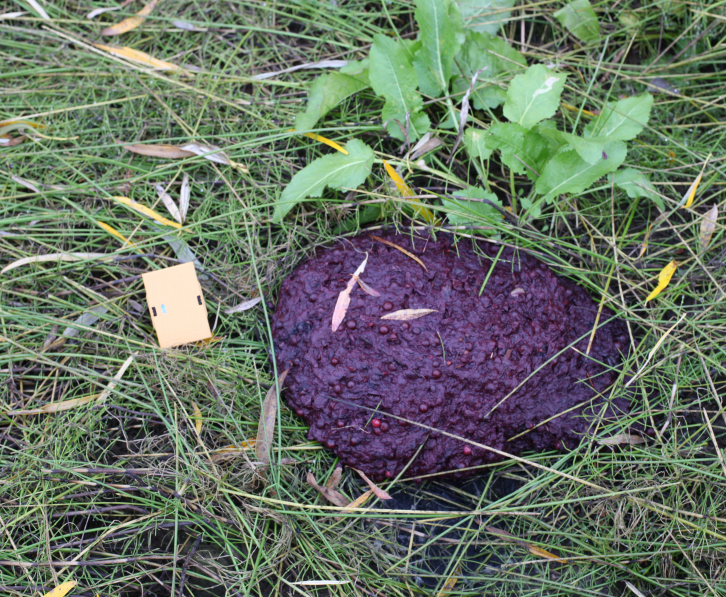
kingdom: Animalia
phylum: Chordata
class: Mammalia
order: Carnivora
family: Ursidae
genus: Ursus
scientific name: Ursus arctos
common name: Brown bear
